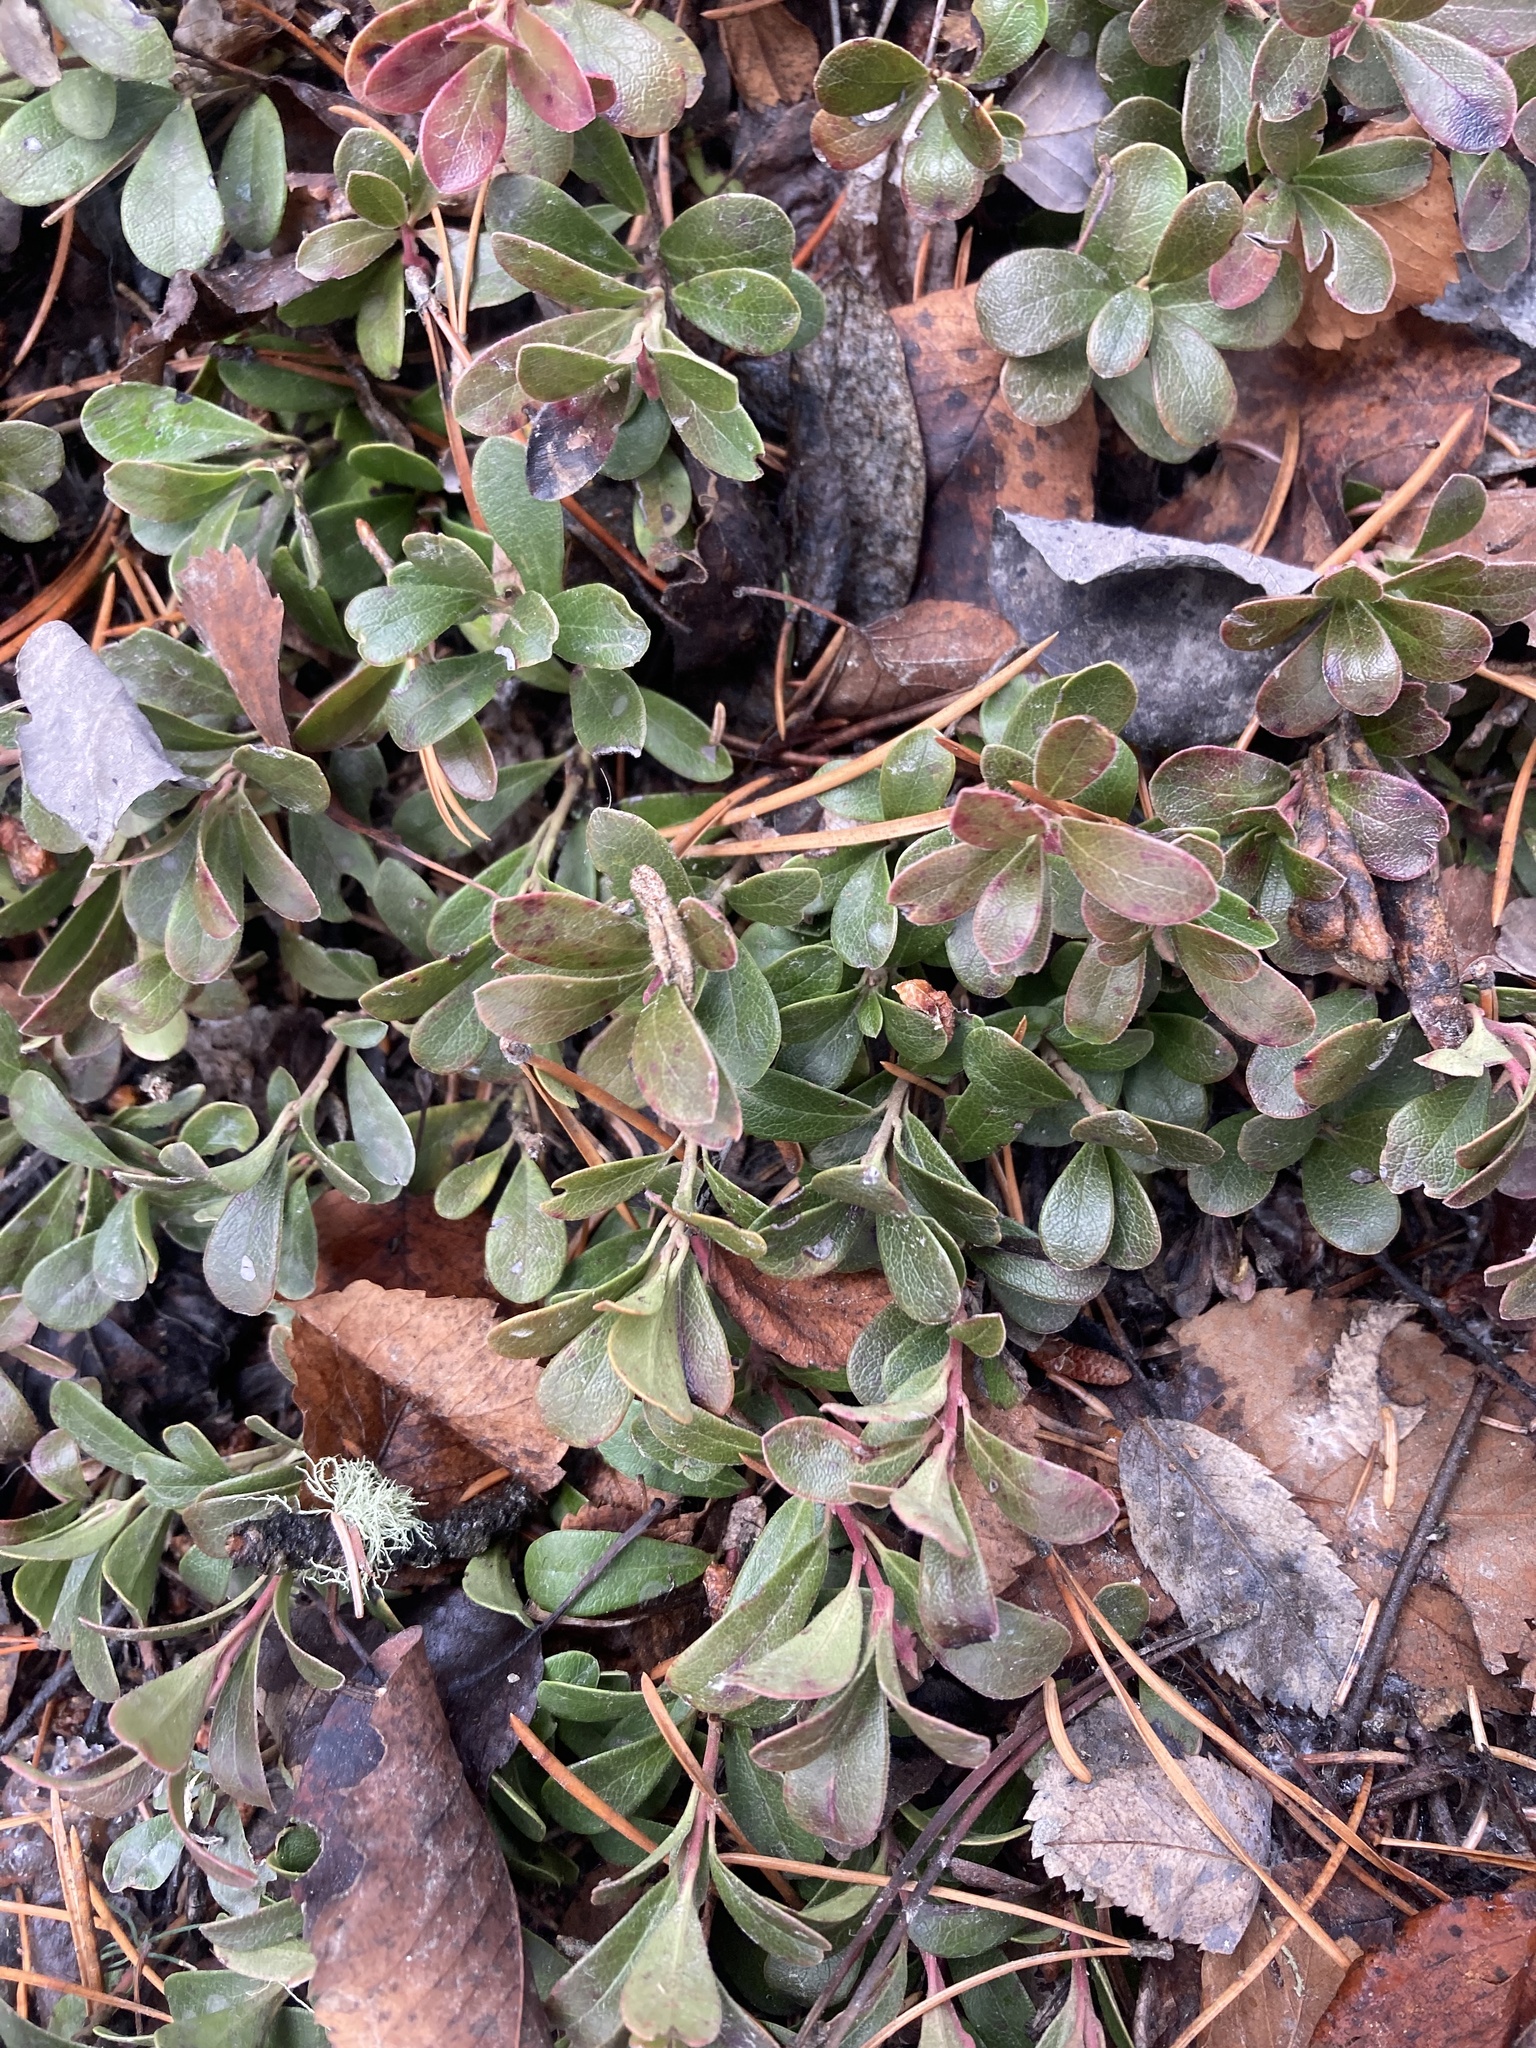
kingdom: Plantae
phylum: Tracheophyta
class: Magnoliopsida
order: Ericales
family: Ericaceae
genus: Arctostaphylos
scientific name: Arctostaphylos uva-ursi
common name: Bearberry
